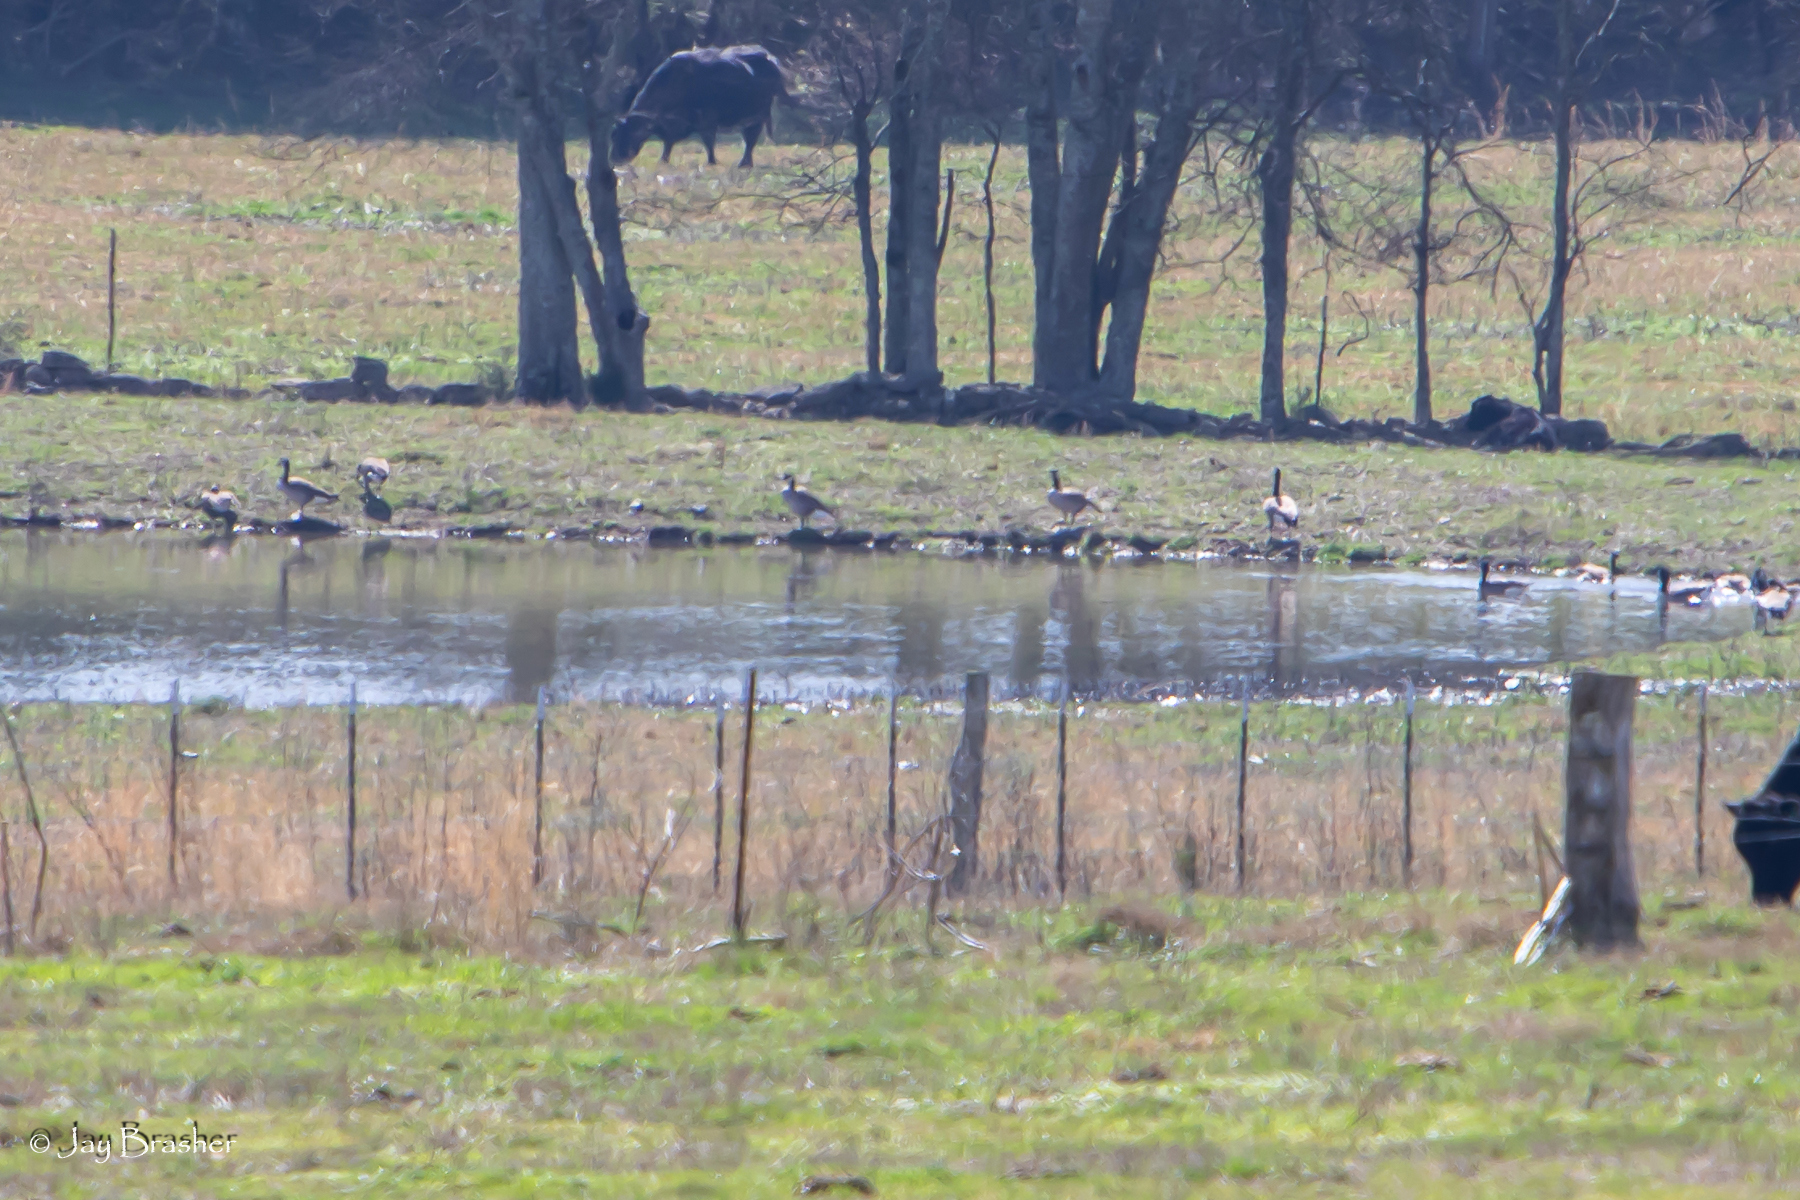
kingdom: Animalia
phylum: Chordata
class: Aves
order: Anseriformes
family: Anatidae
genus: Branta
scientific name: Branta canadensis
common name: Canada goose
